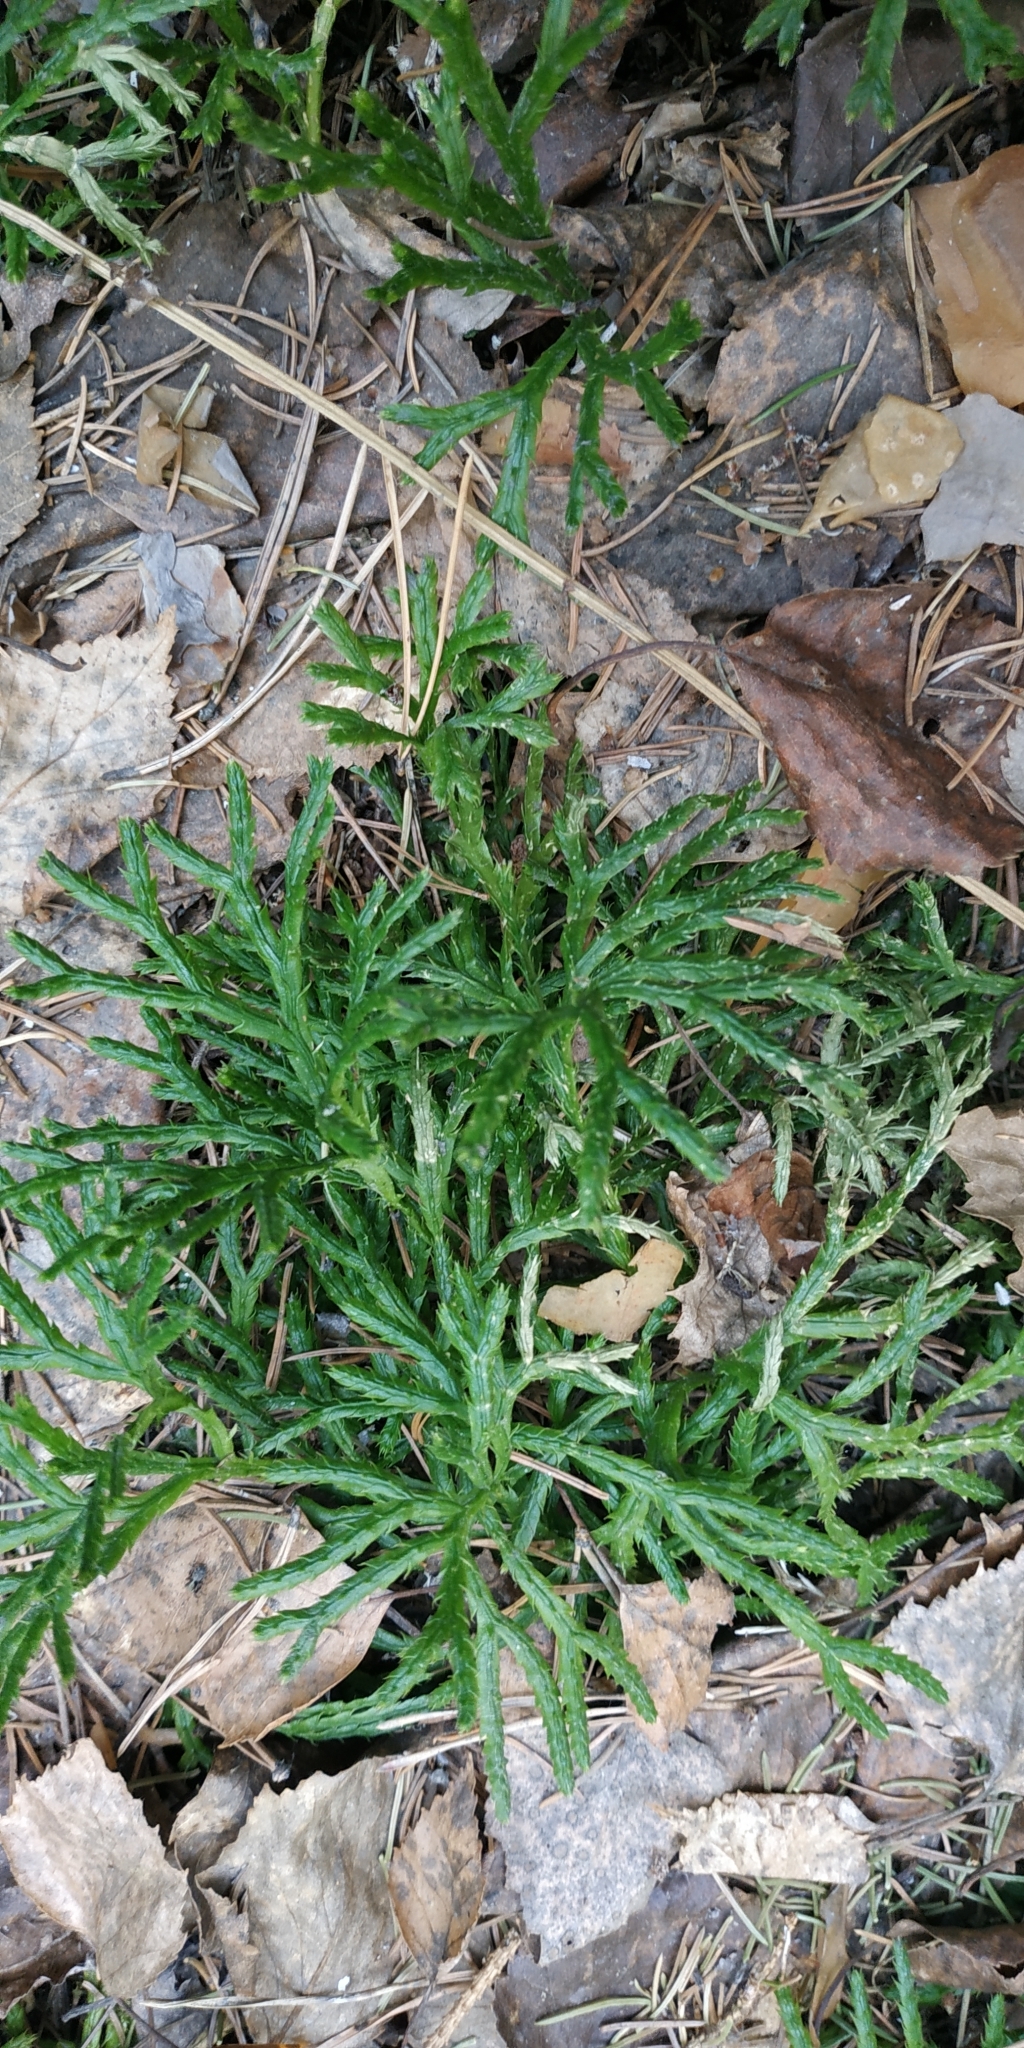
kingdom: Plantae
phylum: Tracheophyta
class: Lycopodiopsida
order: Lycopodiales
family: Lycopodiaceae
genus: Diphasiastrum
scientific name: Diphasiastrum complanatum
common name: Northern running-pine
